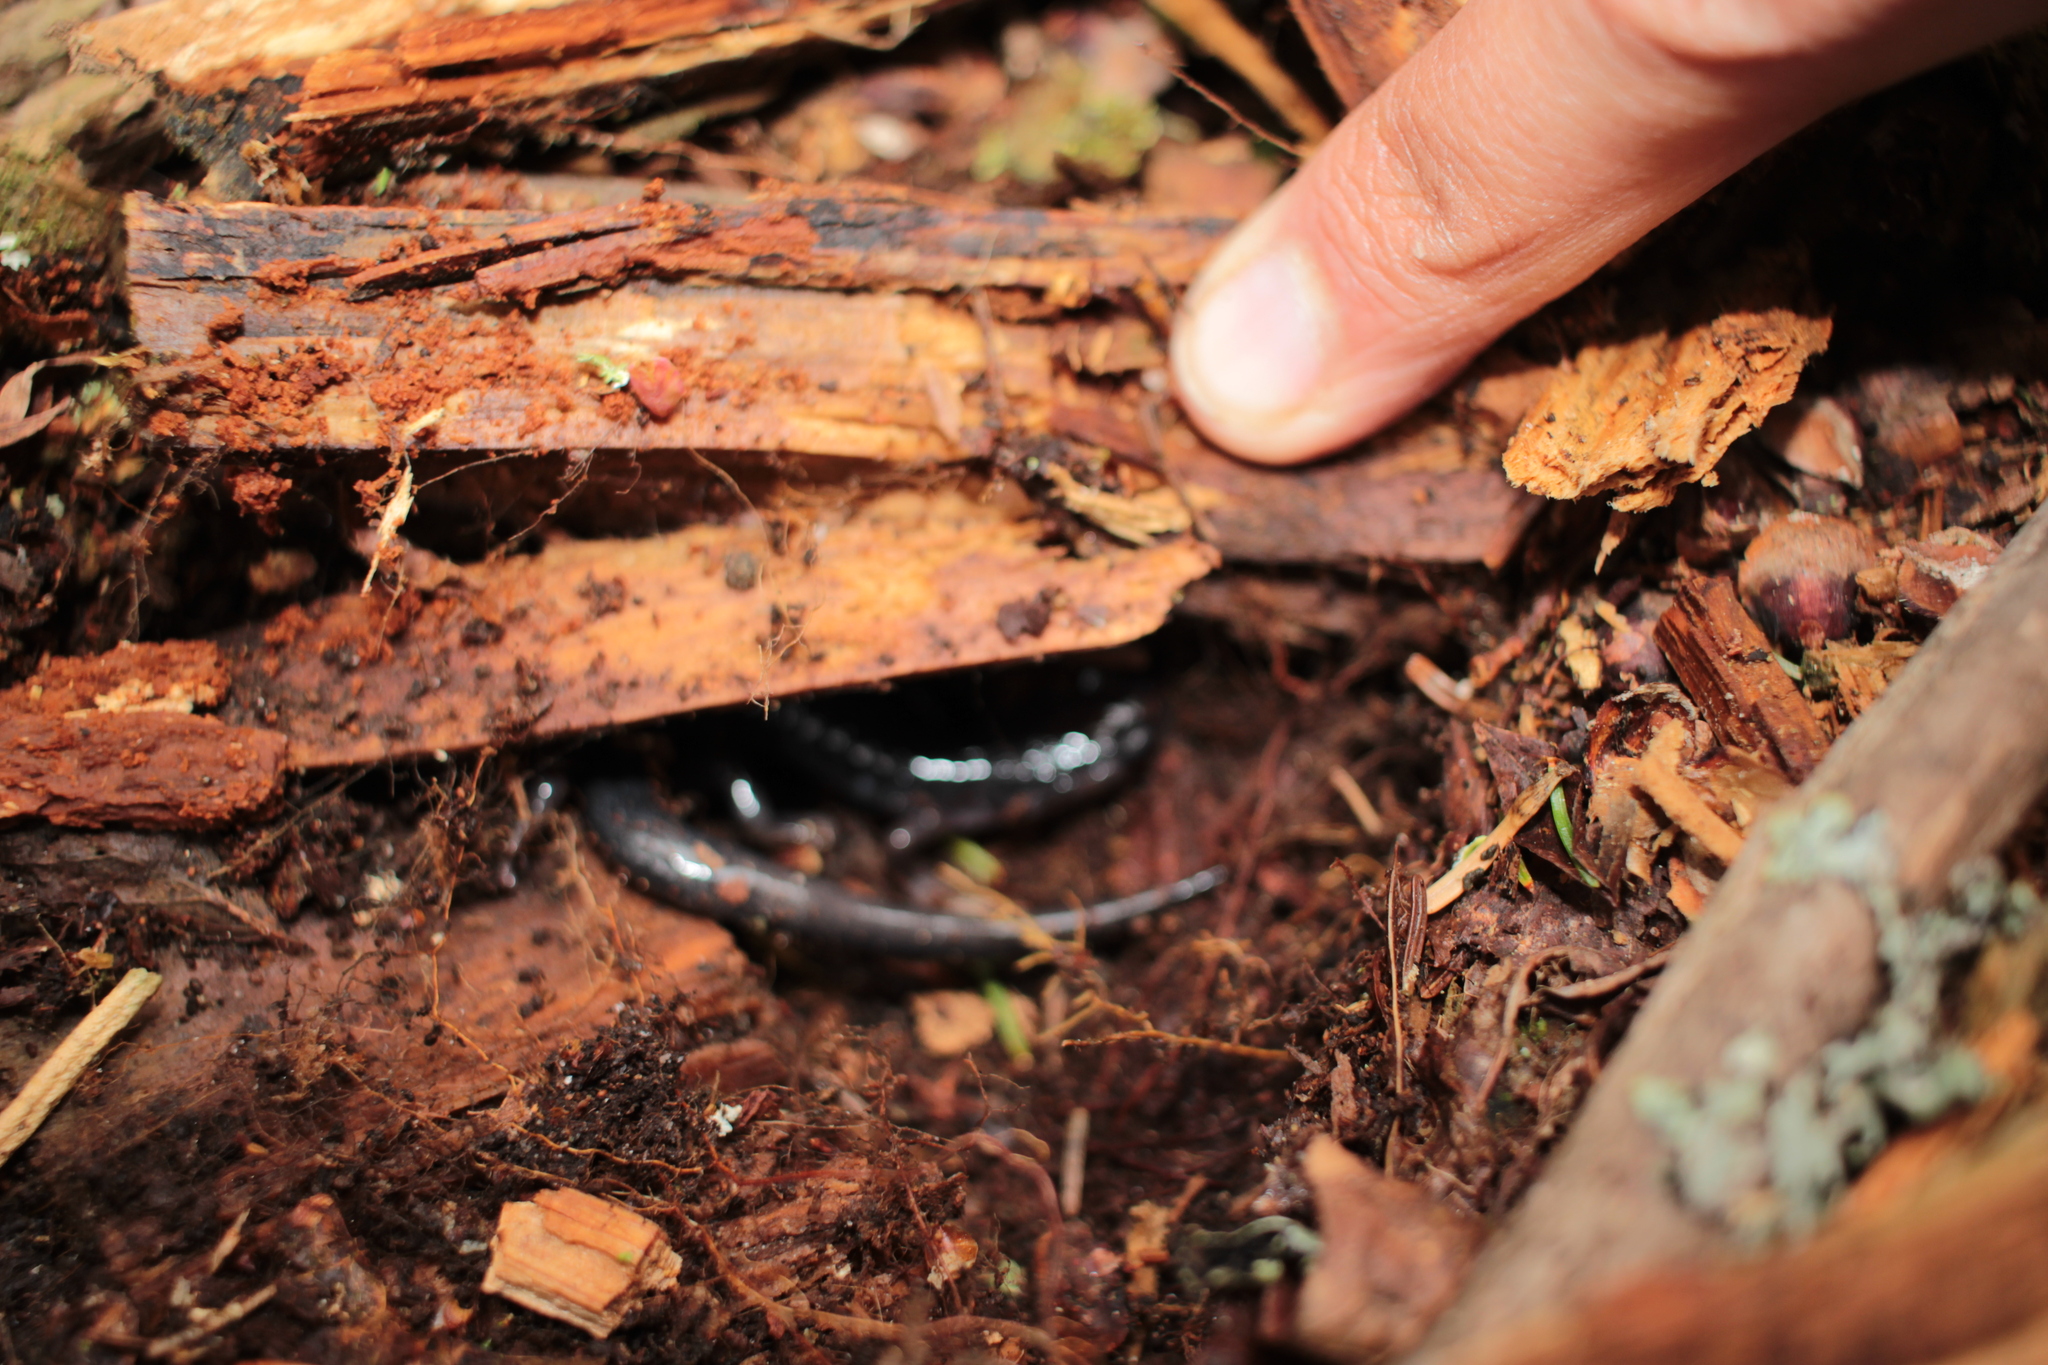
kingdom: Animalia
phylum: Chordata
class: Amphibia
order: Caudata
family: Plethodontidae
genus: Plethodon
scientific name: Plethodon montanus
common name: Northern gray-cheeked salamander
